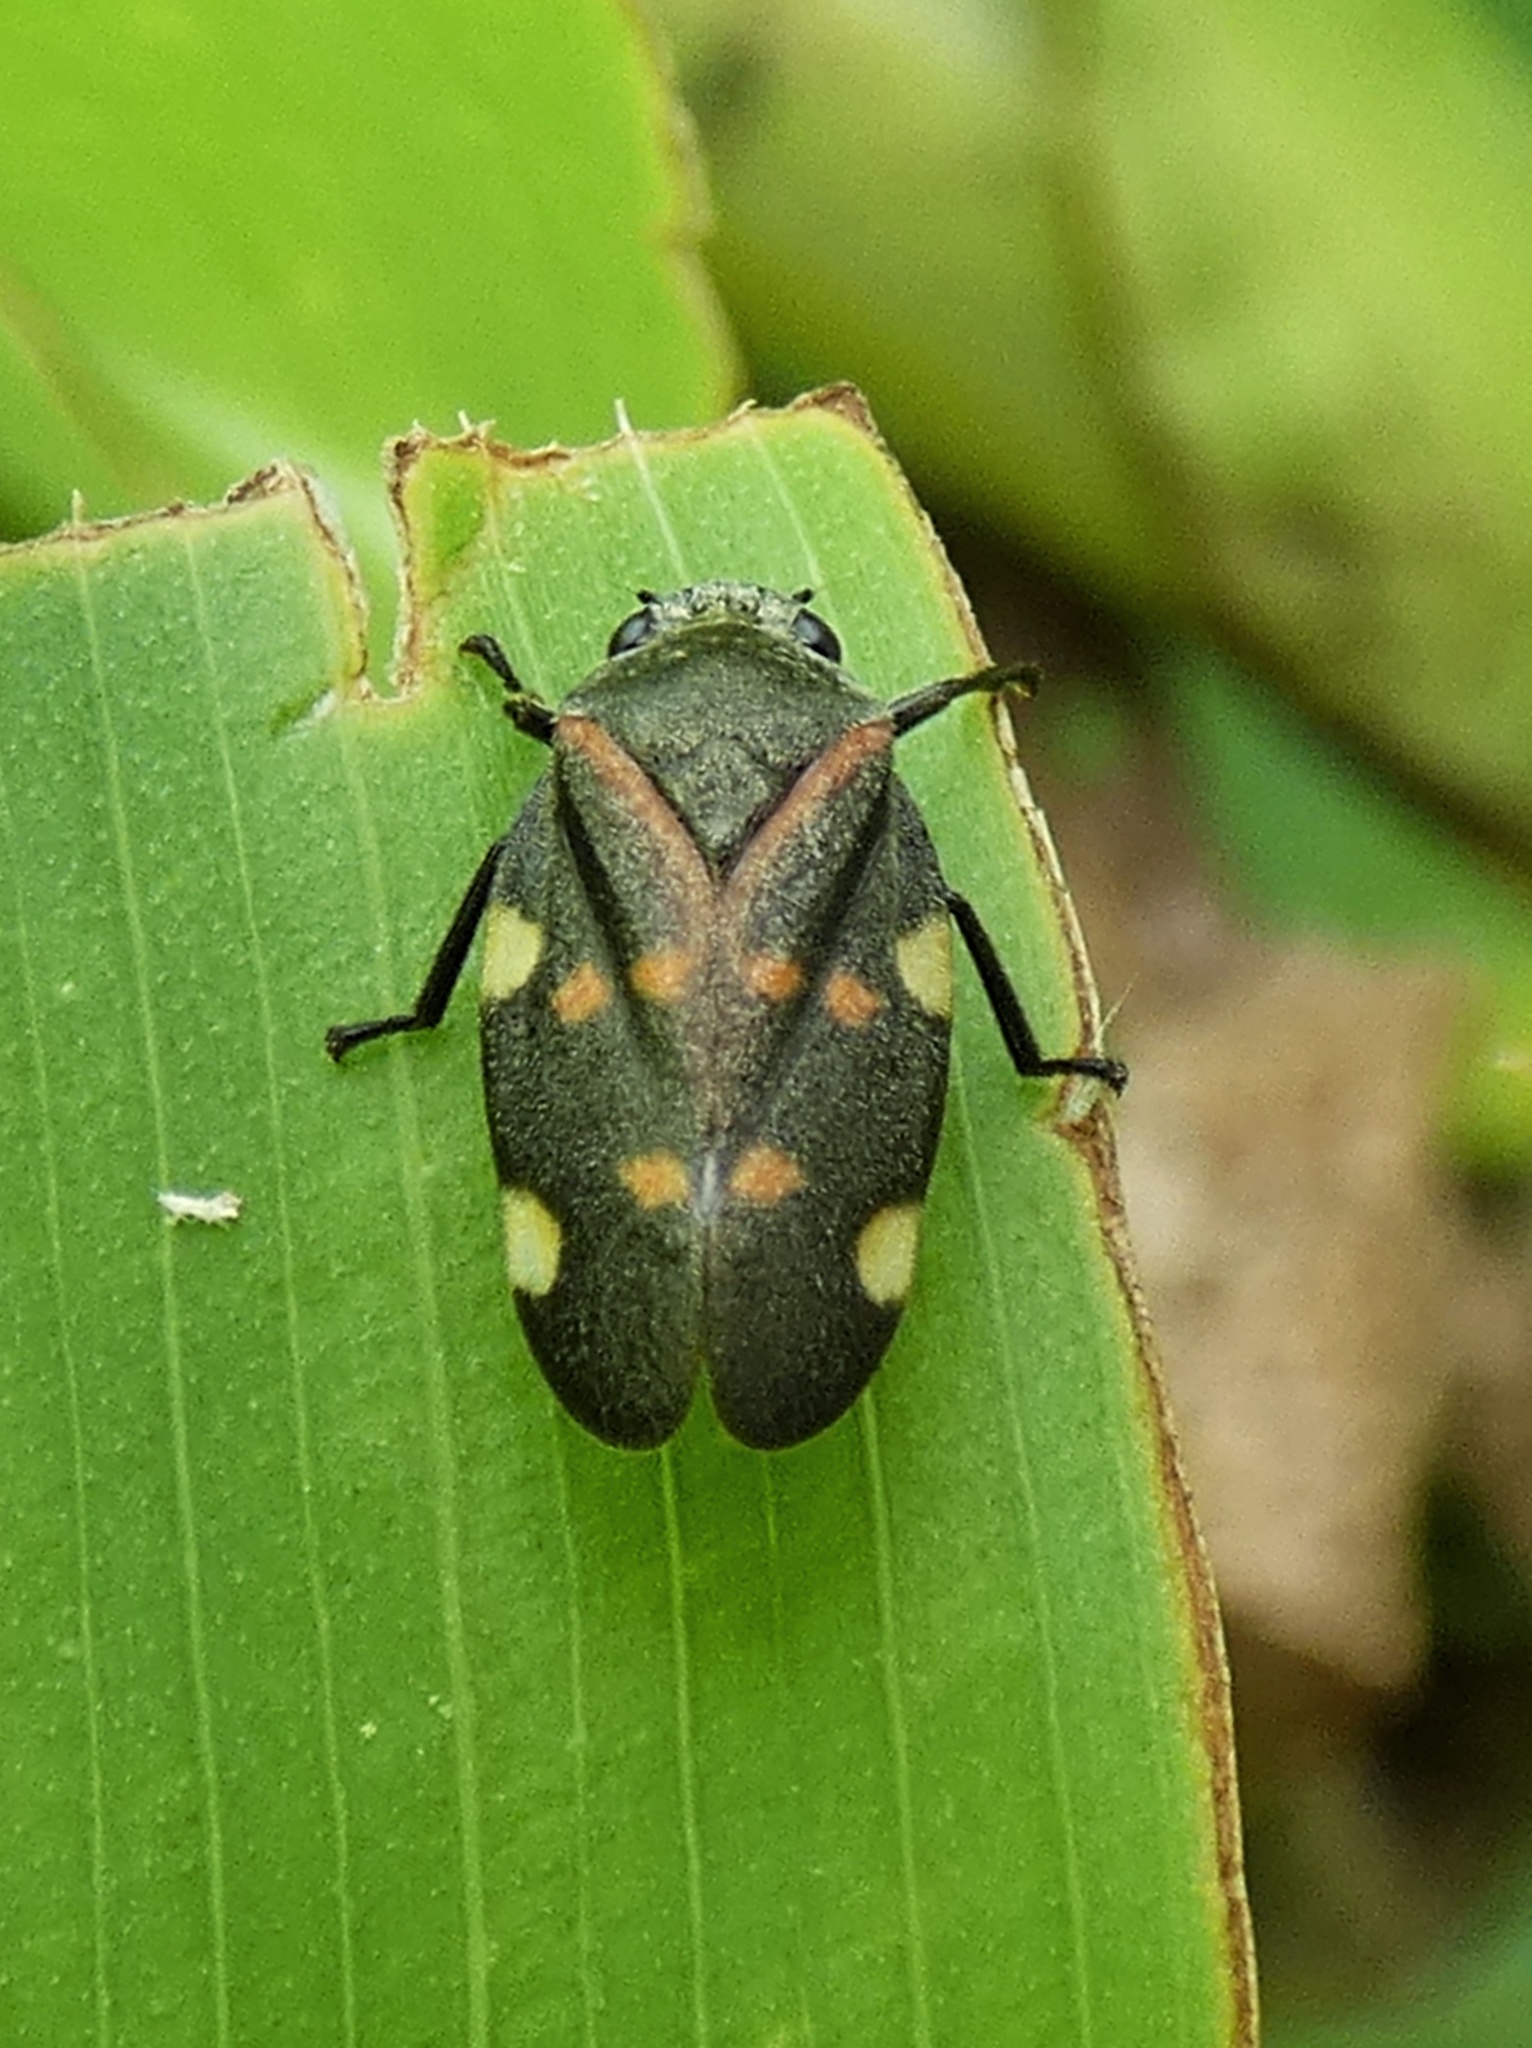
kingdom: Animalia
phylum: Arthropoda
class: Insecta
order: Hemiptera
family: Cercopidae
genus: Aeneolamia
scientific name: Aeneolamia lepidior
